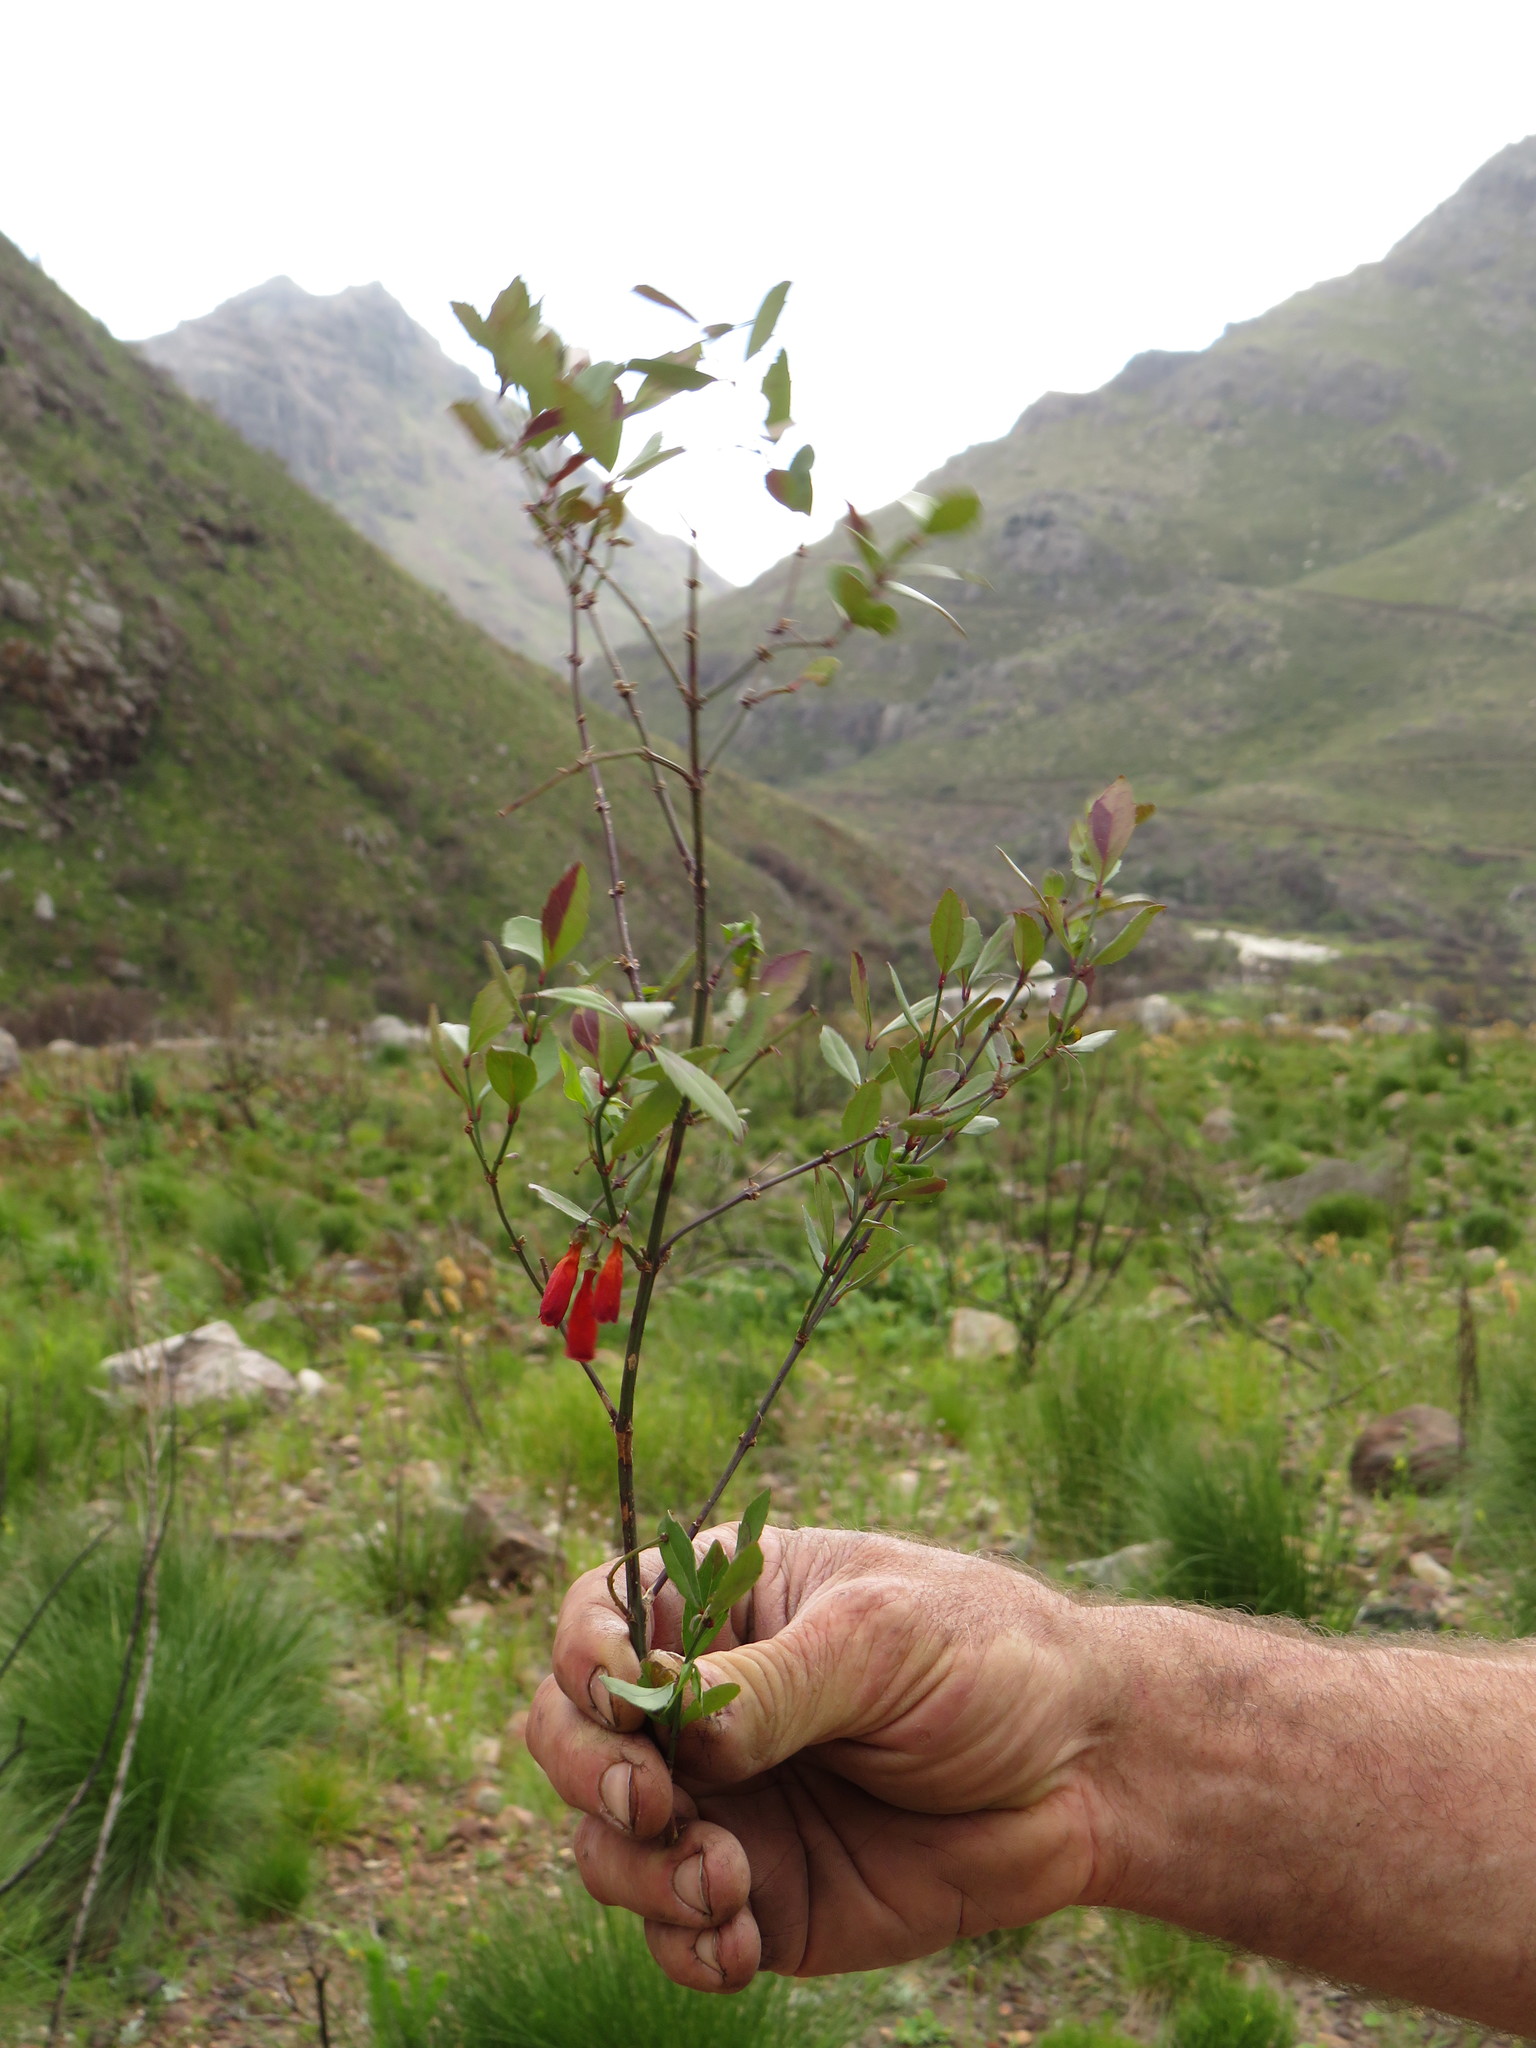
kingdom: Plantae
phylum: Tracheophyta
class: Magnoliopsida
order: Lamiales
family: Stilbaceae
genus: Halleria
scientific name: Halleria elliptica
